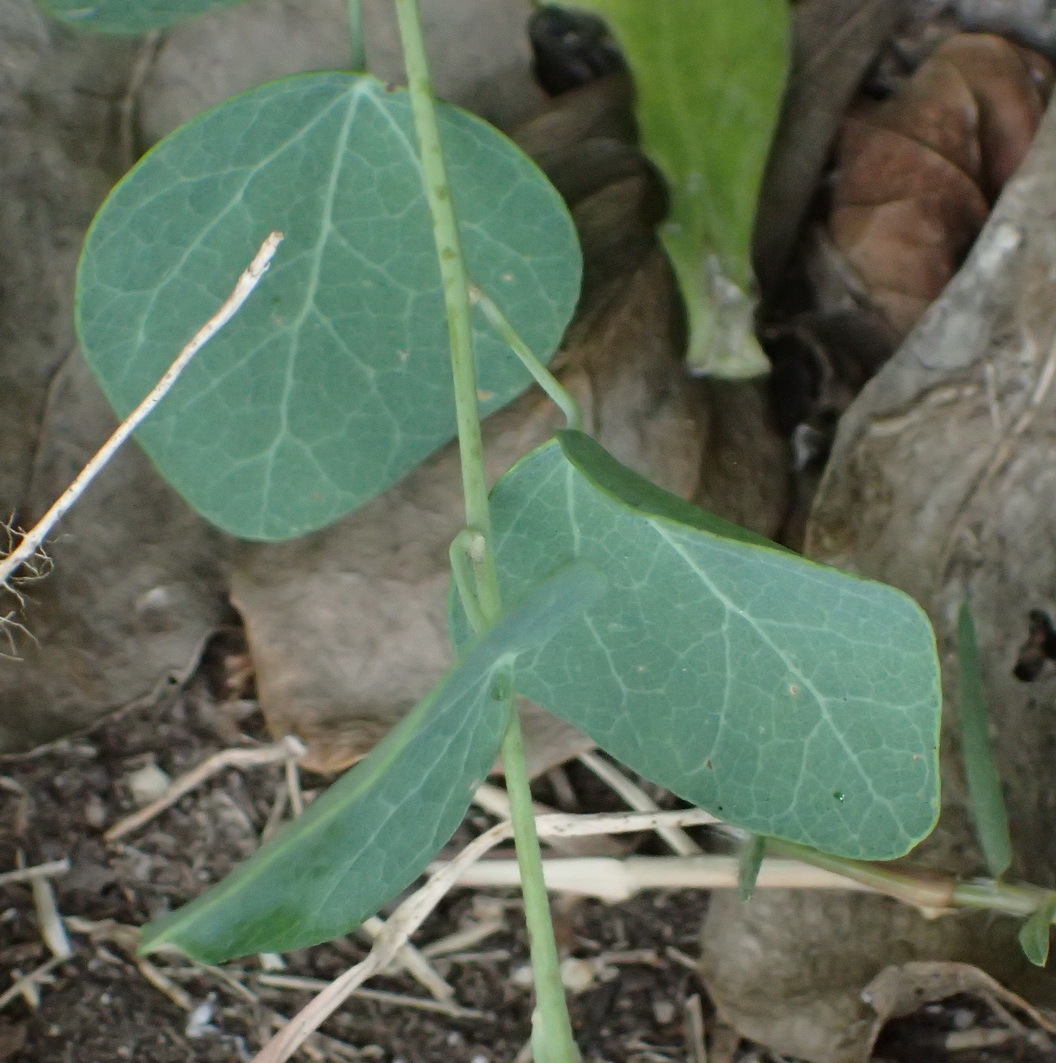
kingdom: Plantae
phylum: Tracheophyta
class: Magnoliopsida
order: Ranunculales
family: Menispermaceae
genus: Cissampelos
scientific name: Cissampelos capensis
